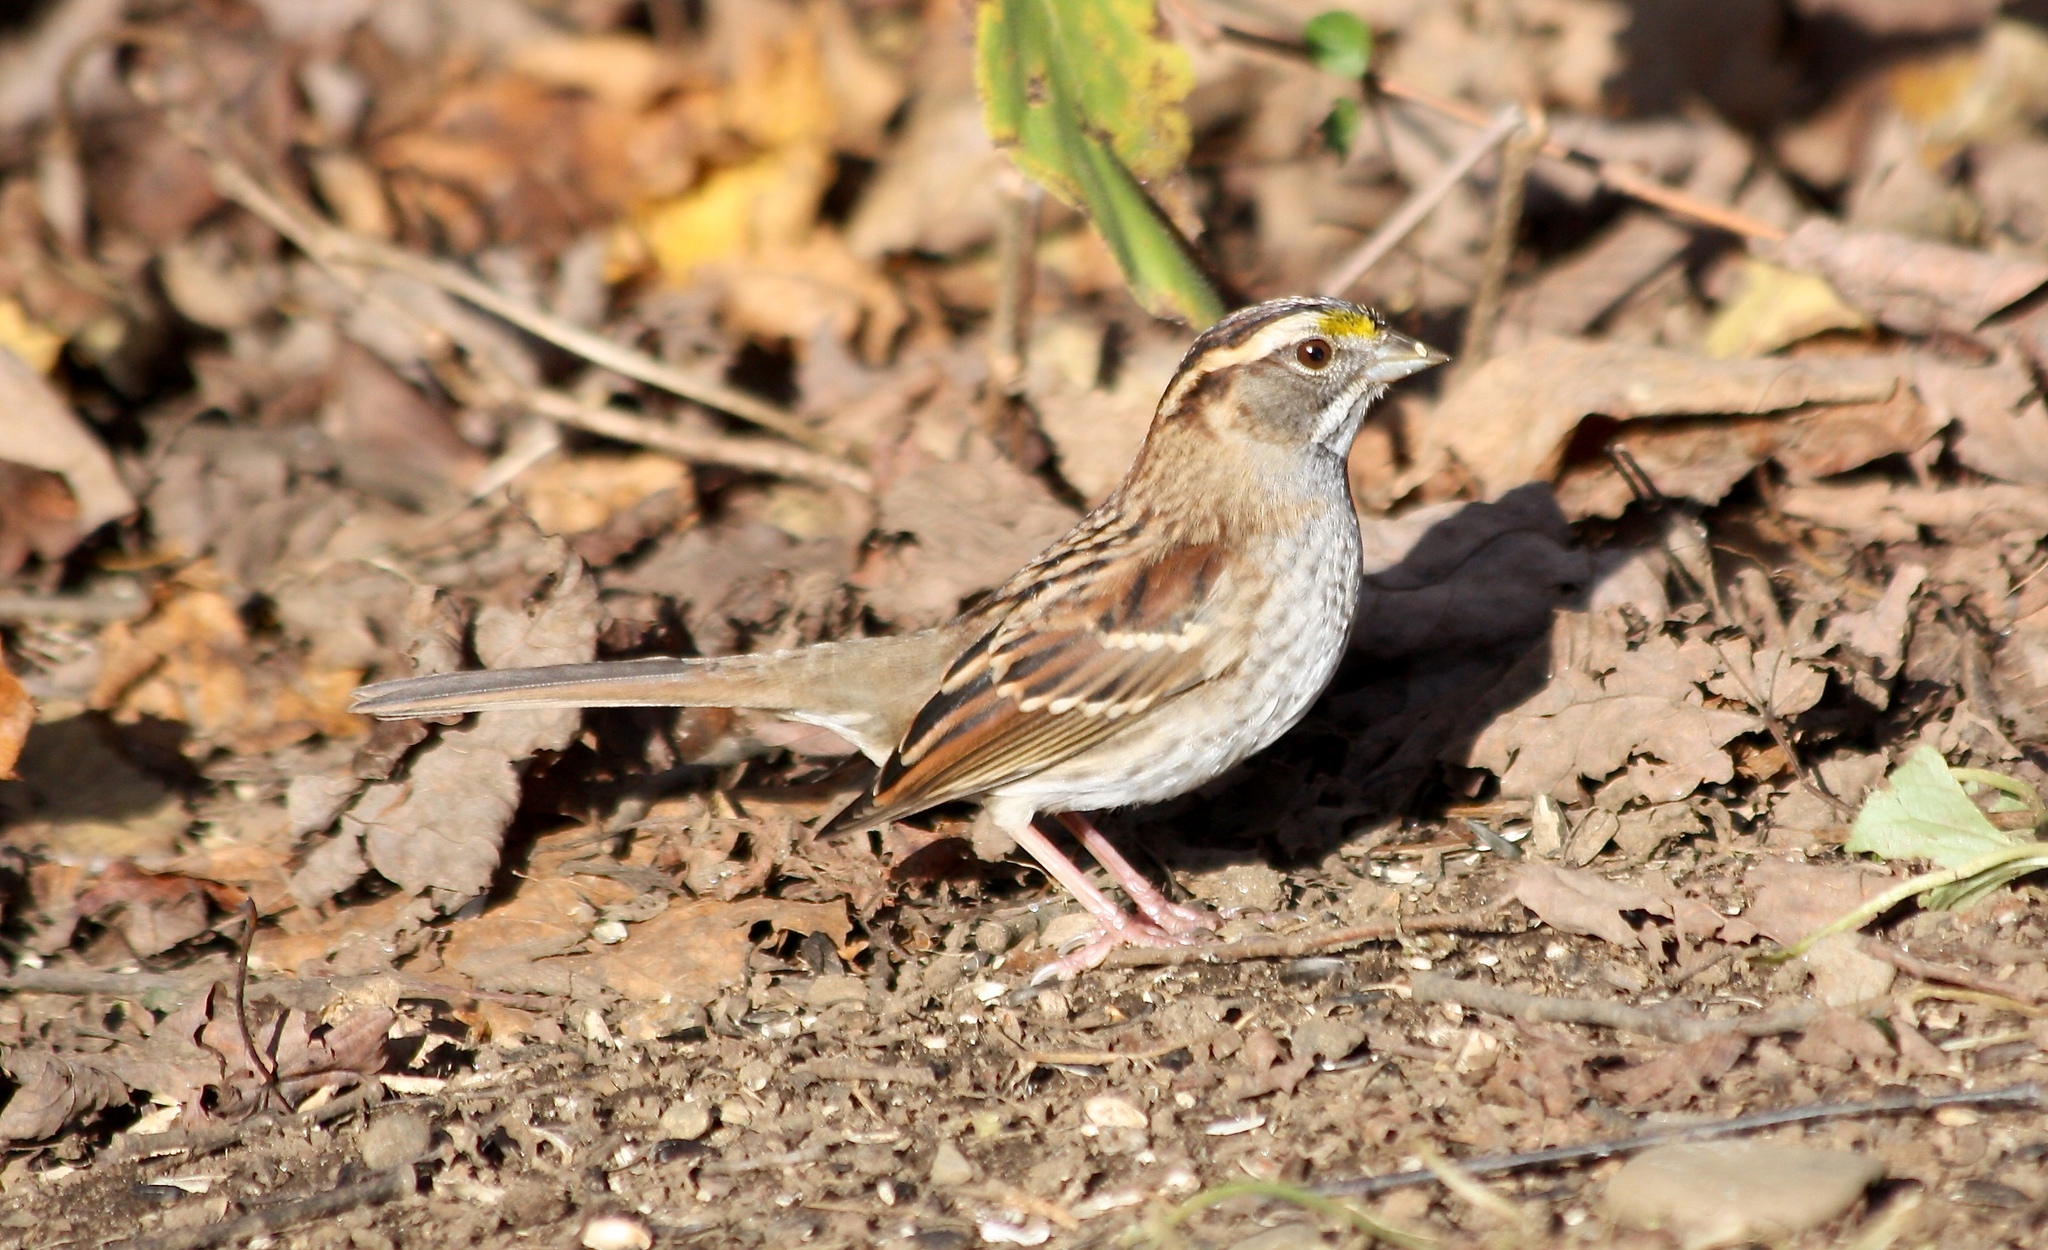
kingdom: Animalia
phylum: Chordata
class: Aves
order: Passeriformes
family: Passerellidae
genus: Zonotrichia
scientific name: Zonotrichia albicollis
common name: White-throated sparrow
